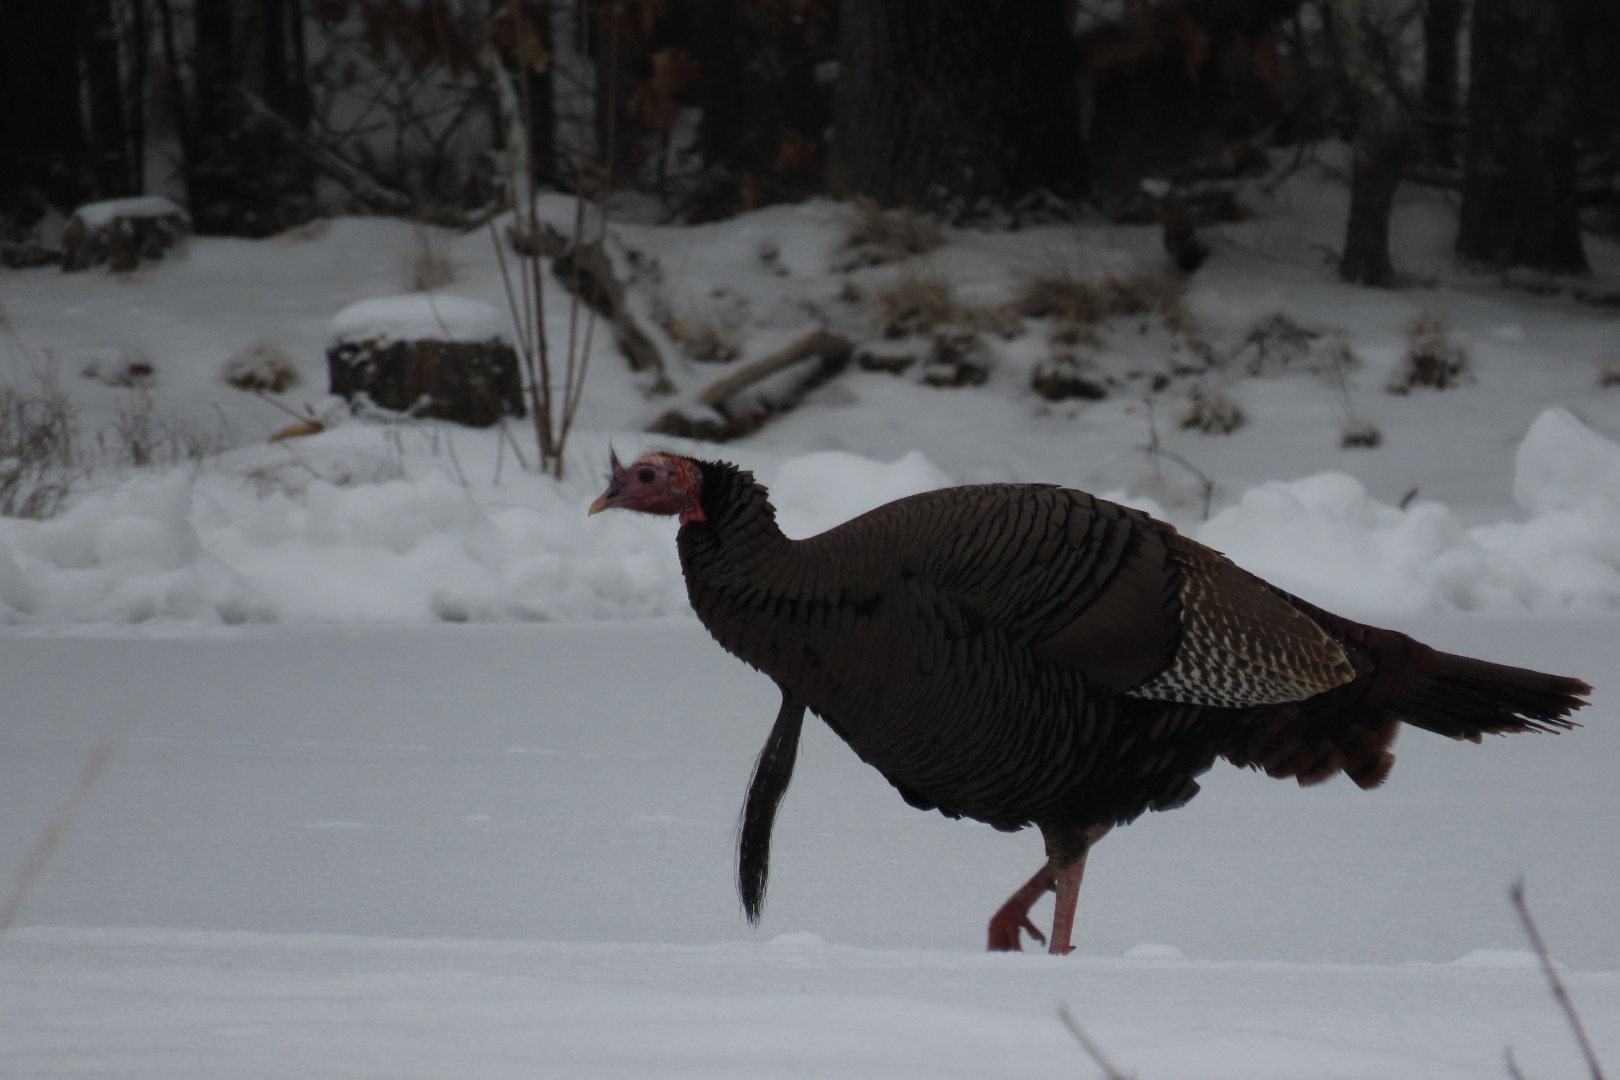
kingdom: Animalia
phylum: Chordata
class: Aves
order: Galliformes
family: Phasianidae
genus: Meleagris
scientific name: Meleagris gallopavo
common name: Wild turkey
